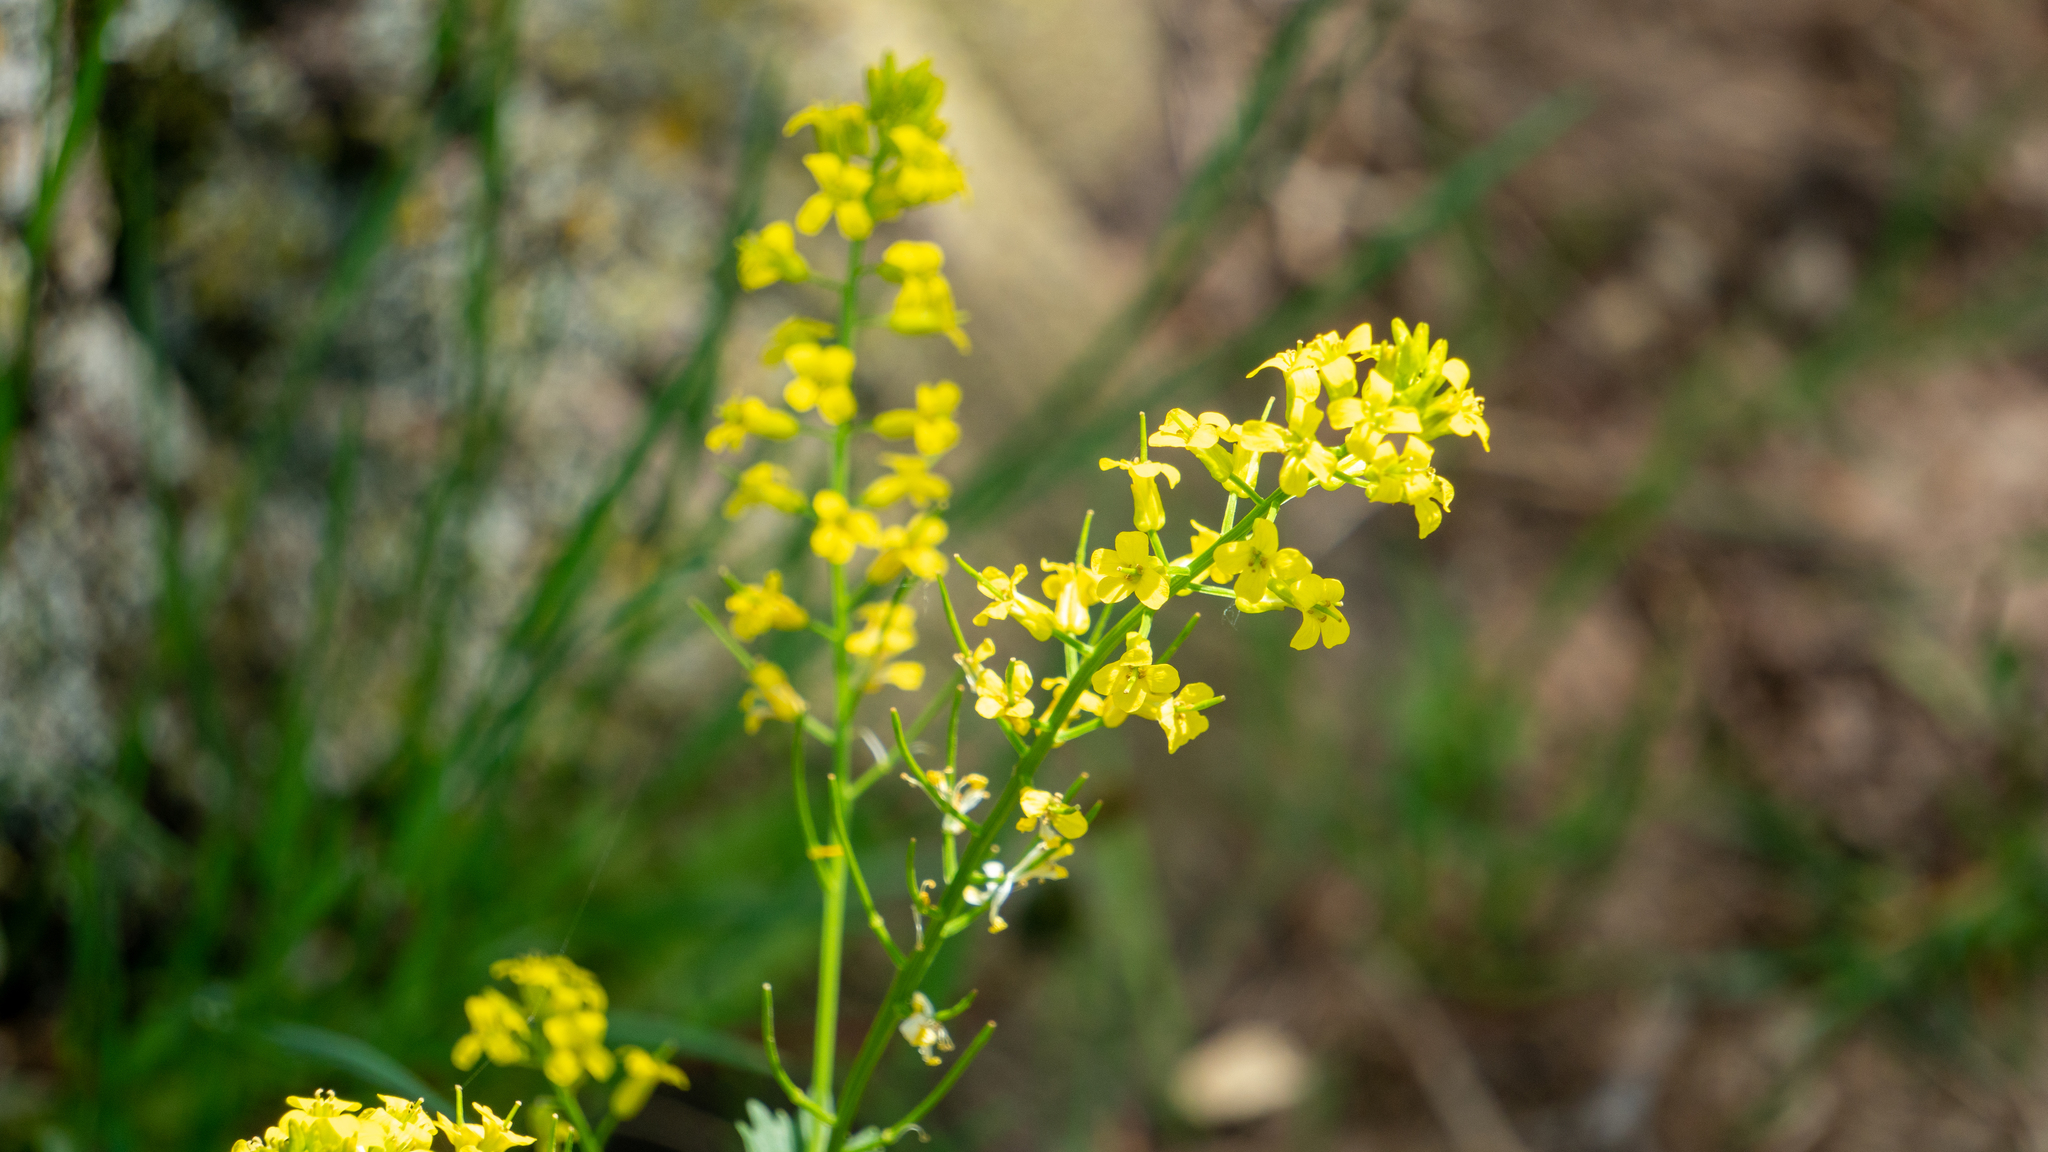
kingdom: Plantae
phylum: Tracheophyta
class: Magnoliopsida
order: Brassicales
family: Brassicaceae
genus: Barbarea
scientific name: Barbarea vulgaris
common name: Cressy-greens
